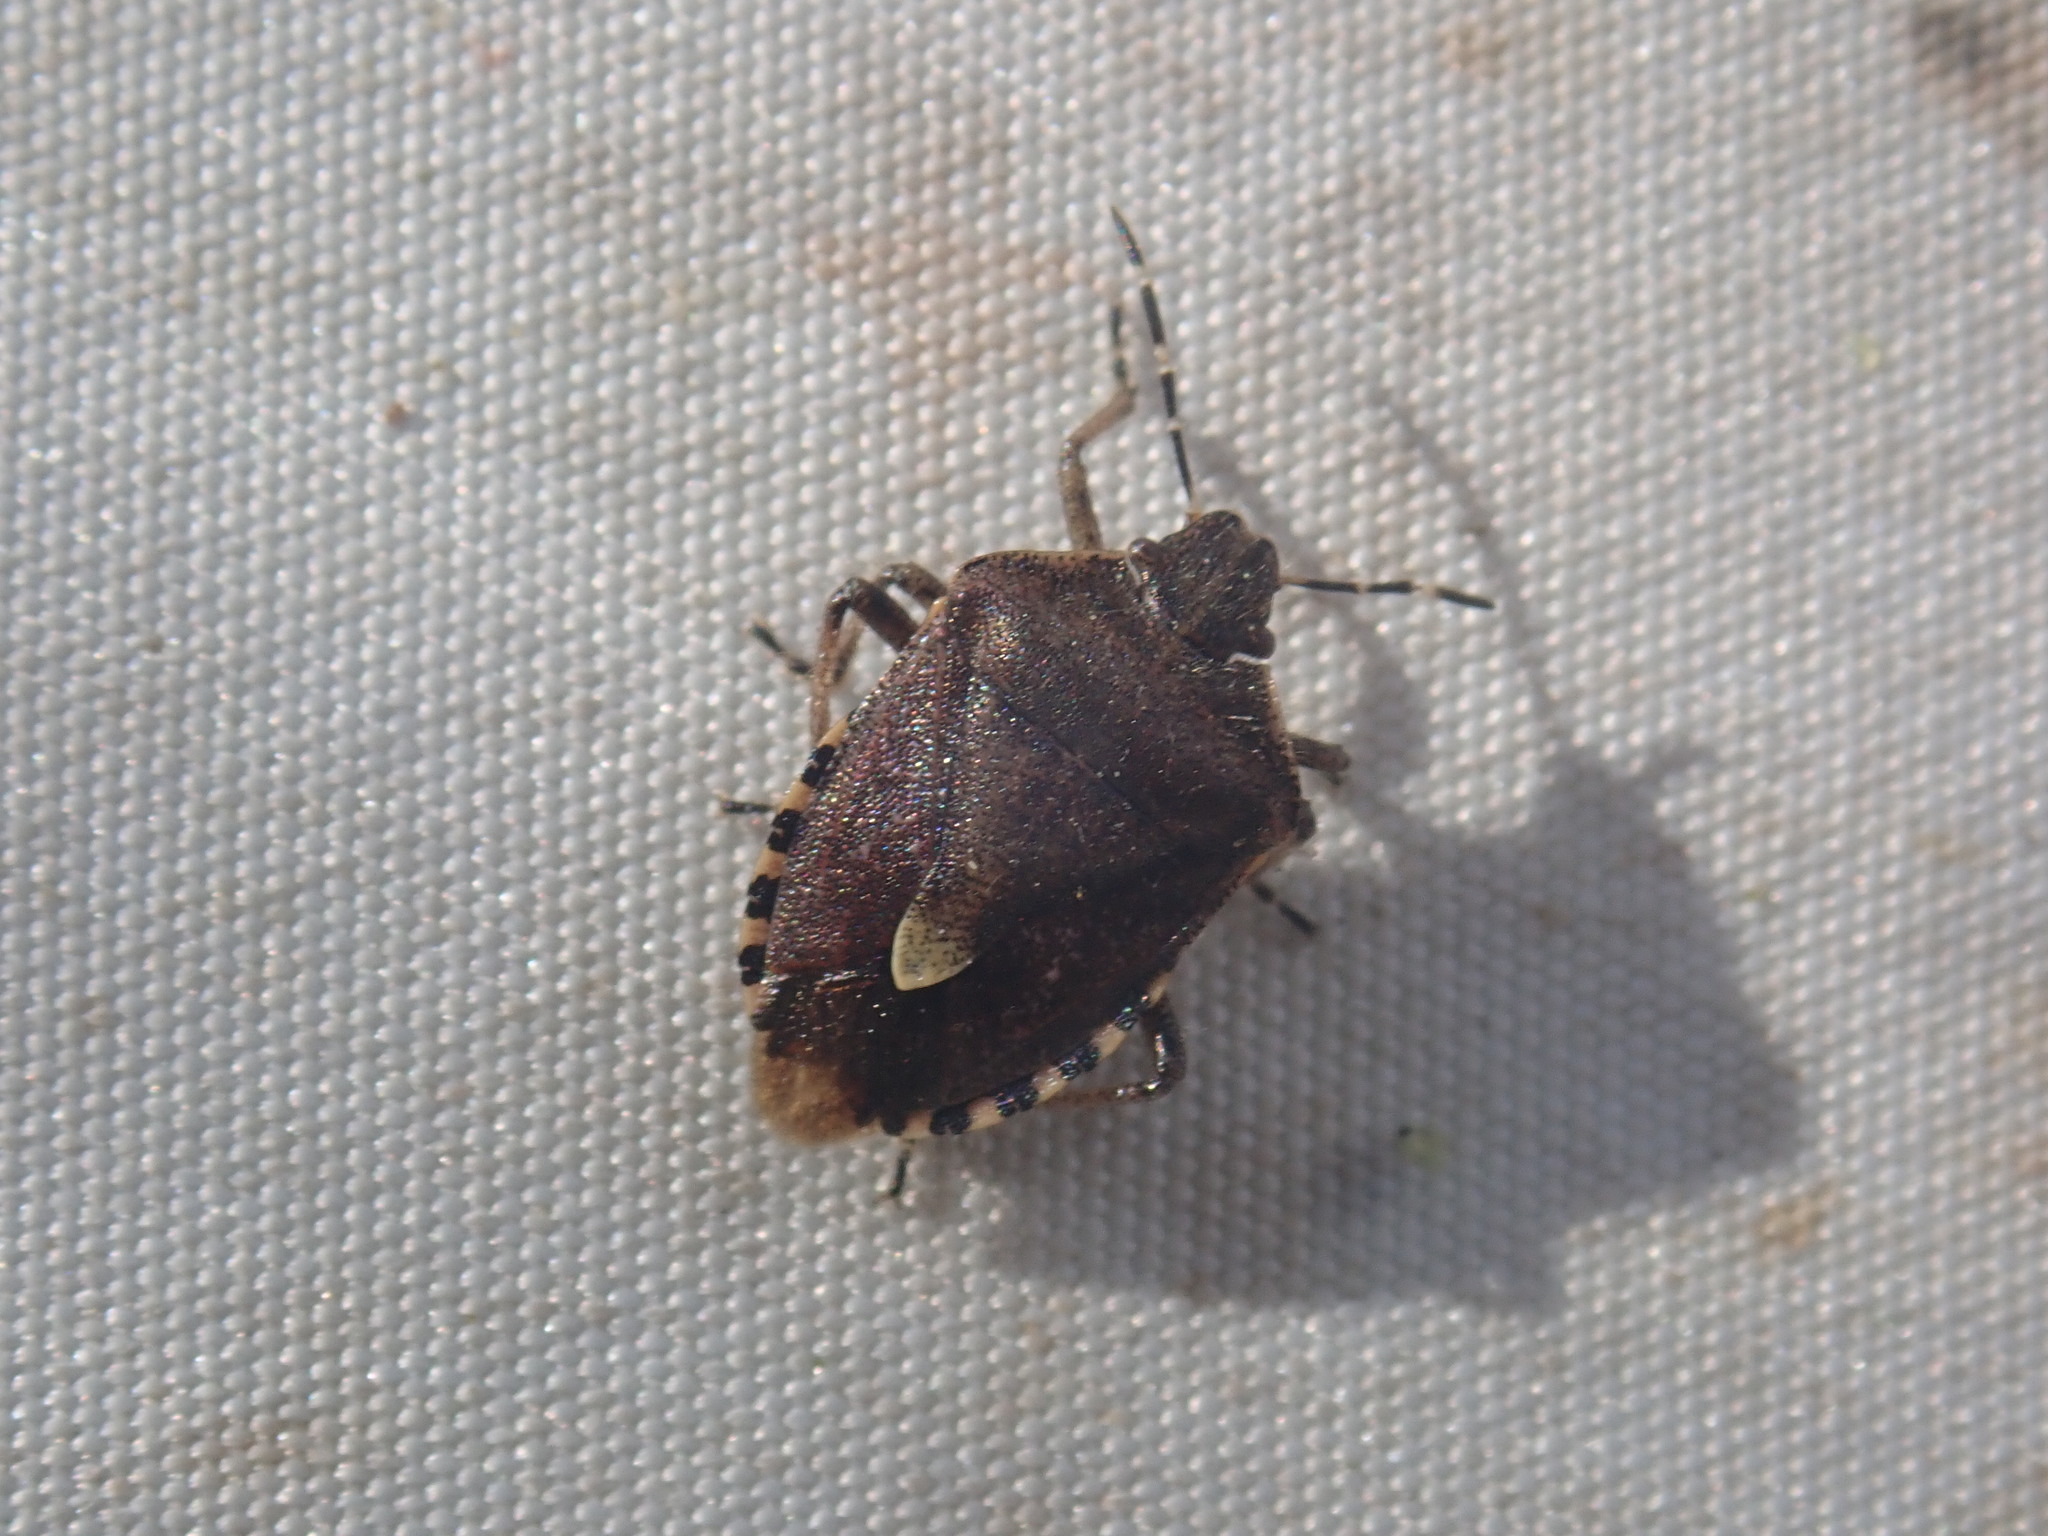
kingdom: Animalia
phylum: Arthropoda
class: Insecta
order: Hemiptera
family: Pentatomidae
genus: Dolycoris
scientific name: Dolycoris baccarum
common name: Sloe bug
